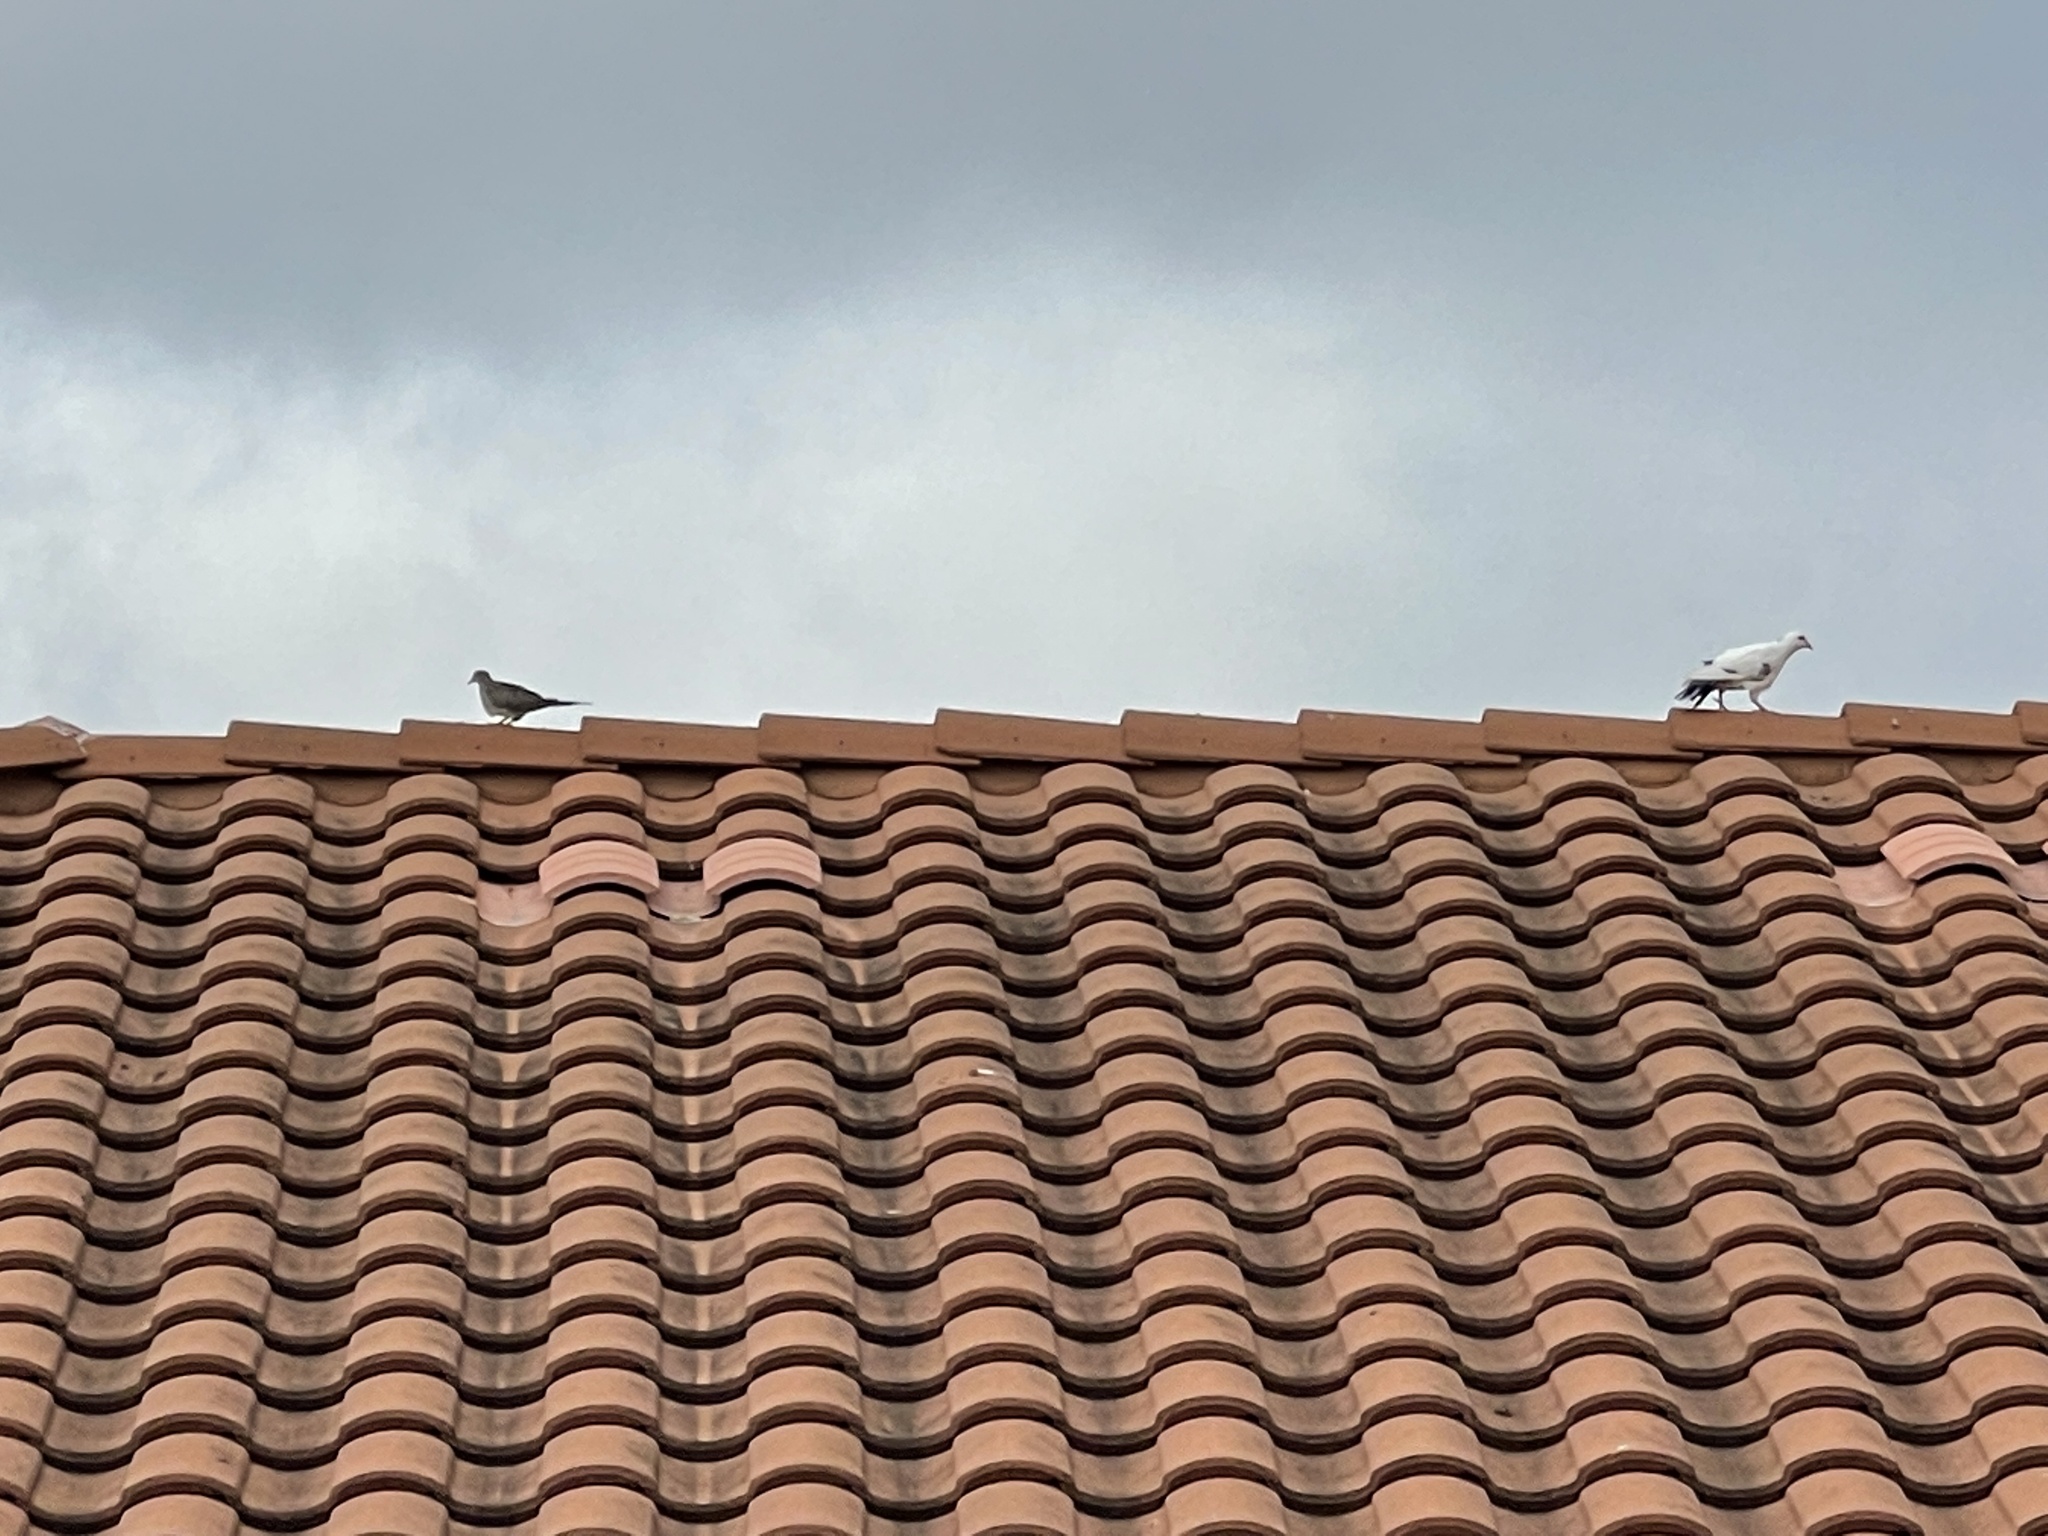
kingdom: Animalia
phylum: Chordata
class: Aves
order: Columbiformes
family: Columbidae
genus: Zenaida
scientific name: Zenaida macroura
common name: Mourning dove
